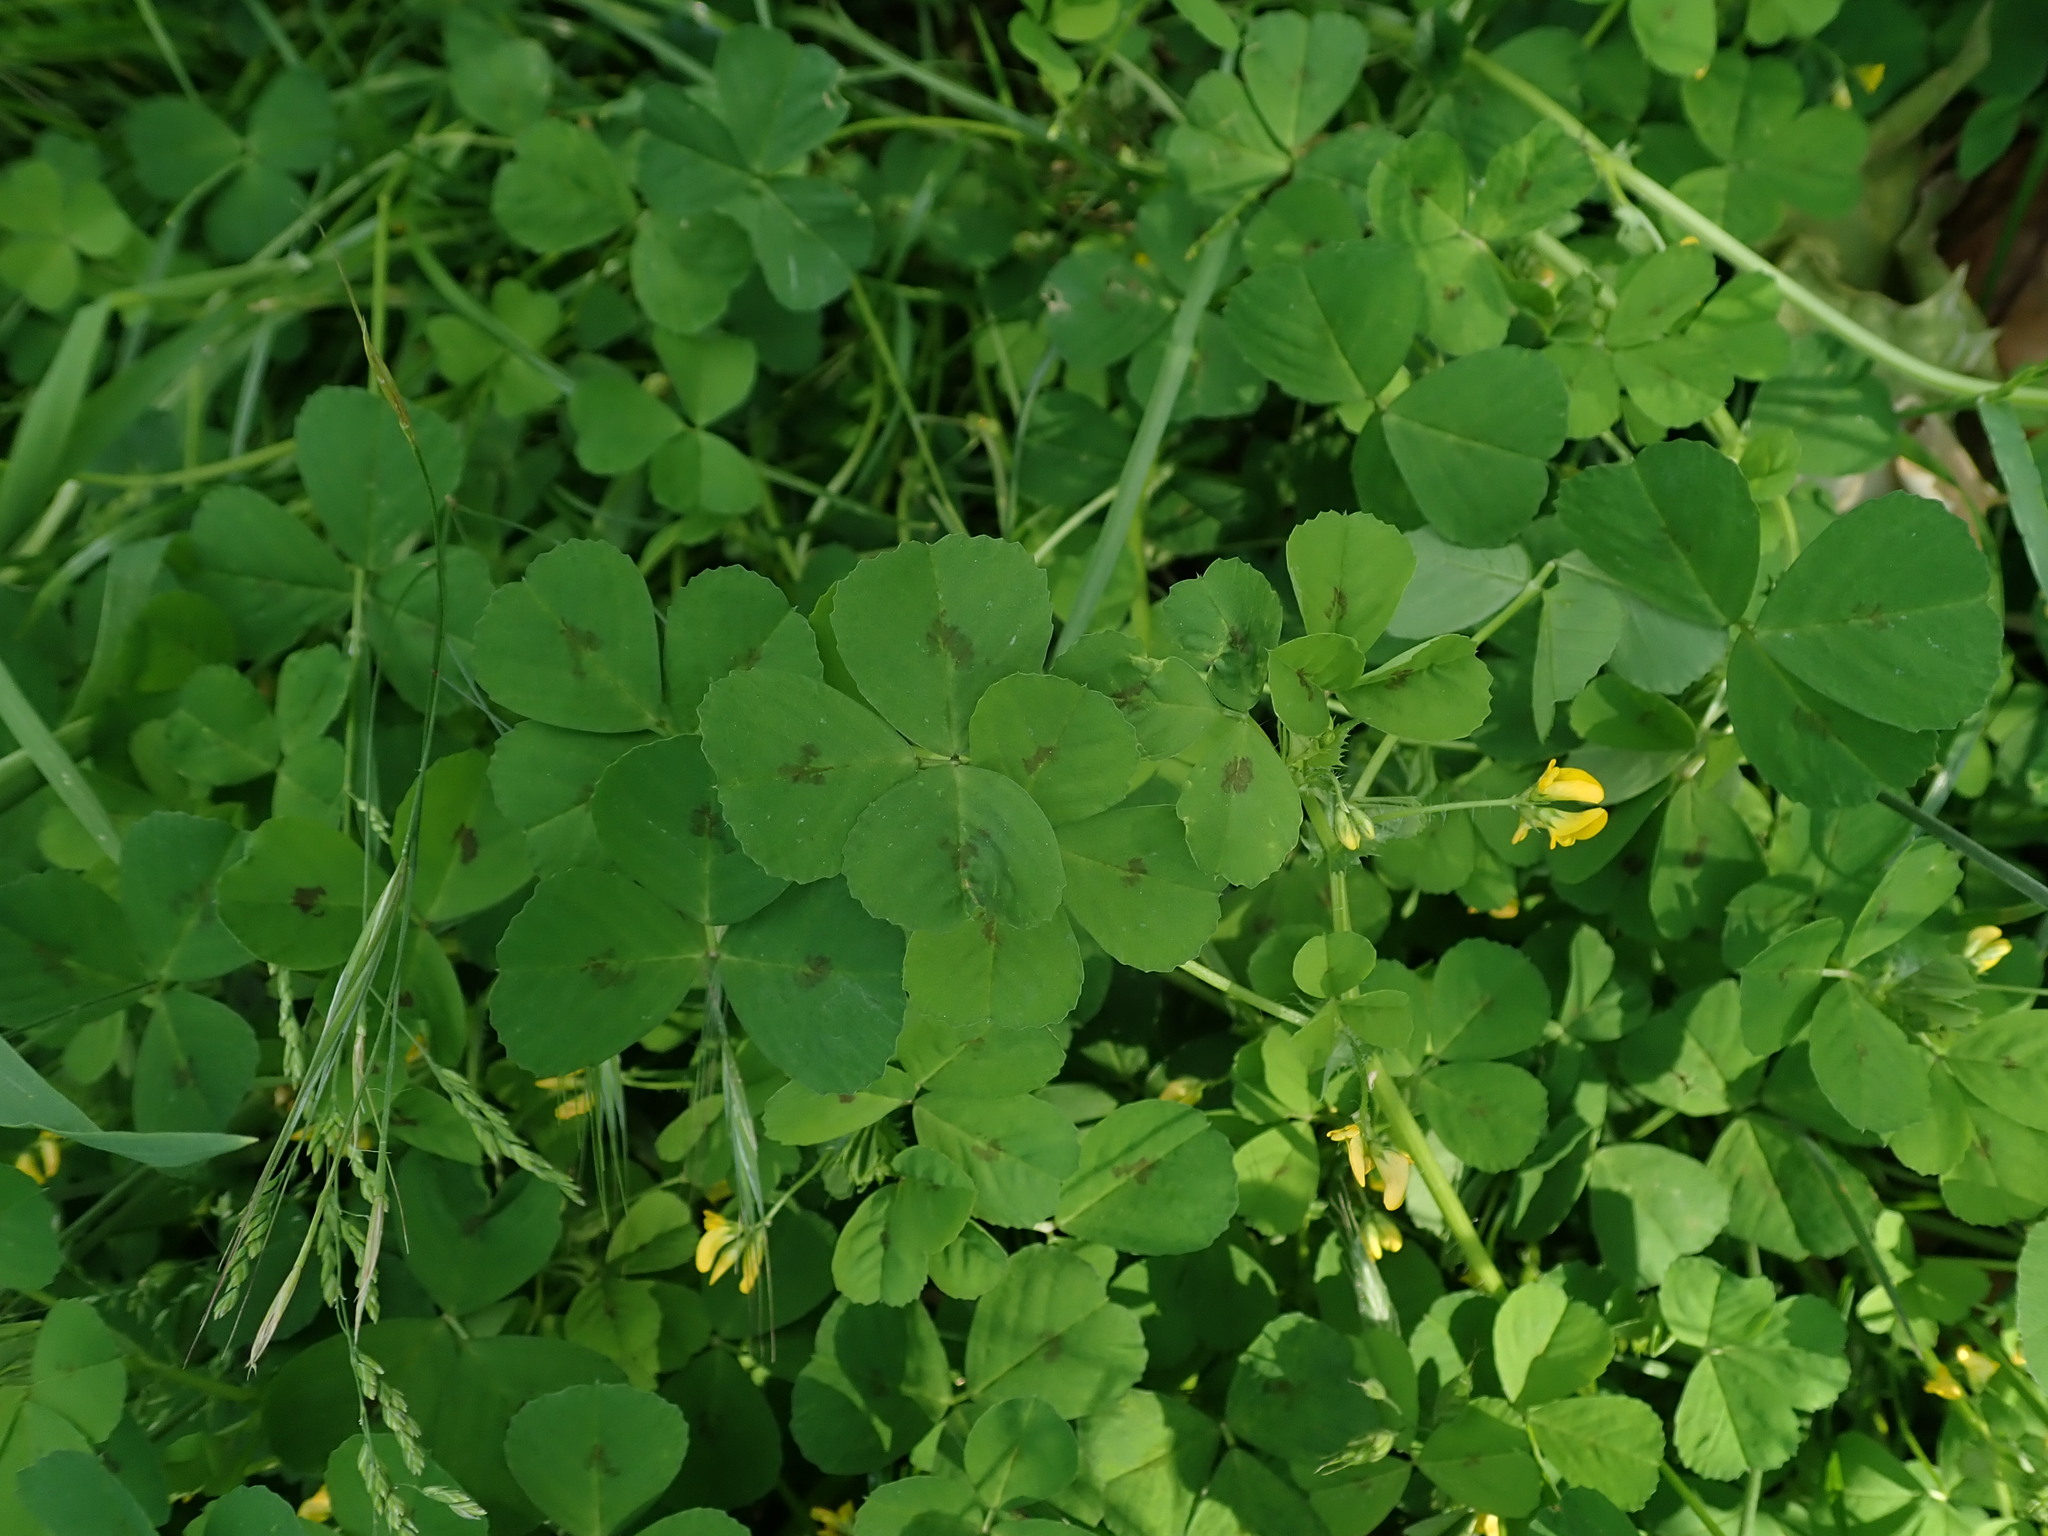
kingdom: Plantae
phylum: Tracheophyta
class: Magnoliopsida
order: Fabales
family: Fabaceae
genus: Medicago
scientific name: Medicago arabica
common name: Spotted medick
